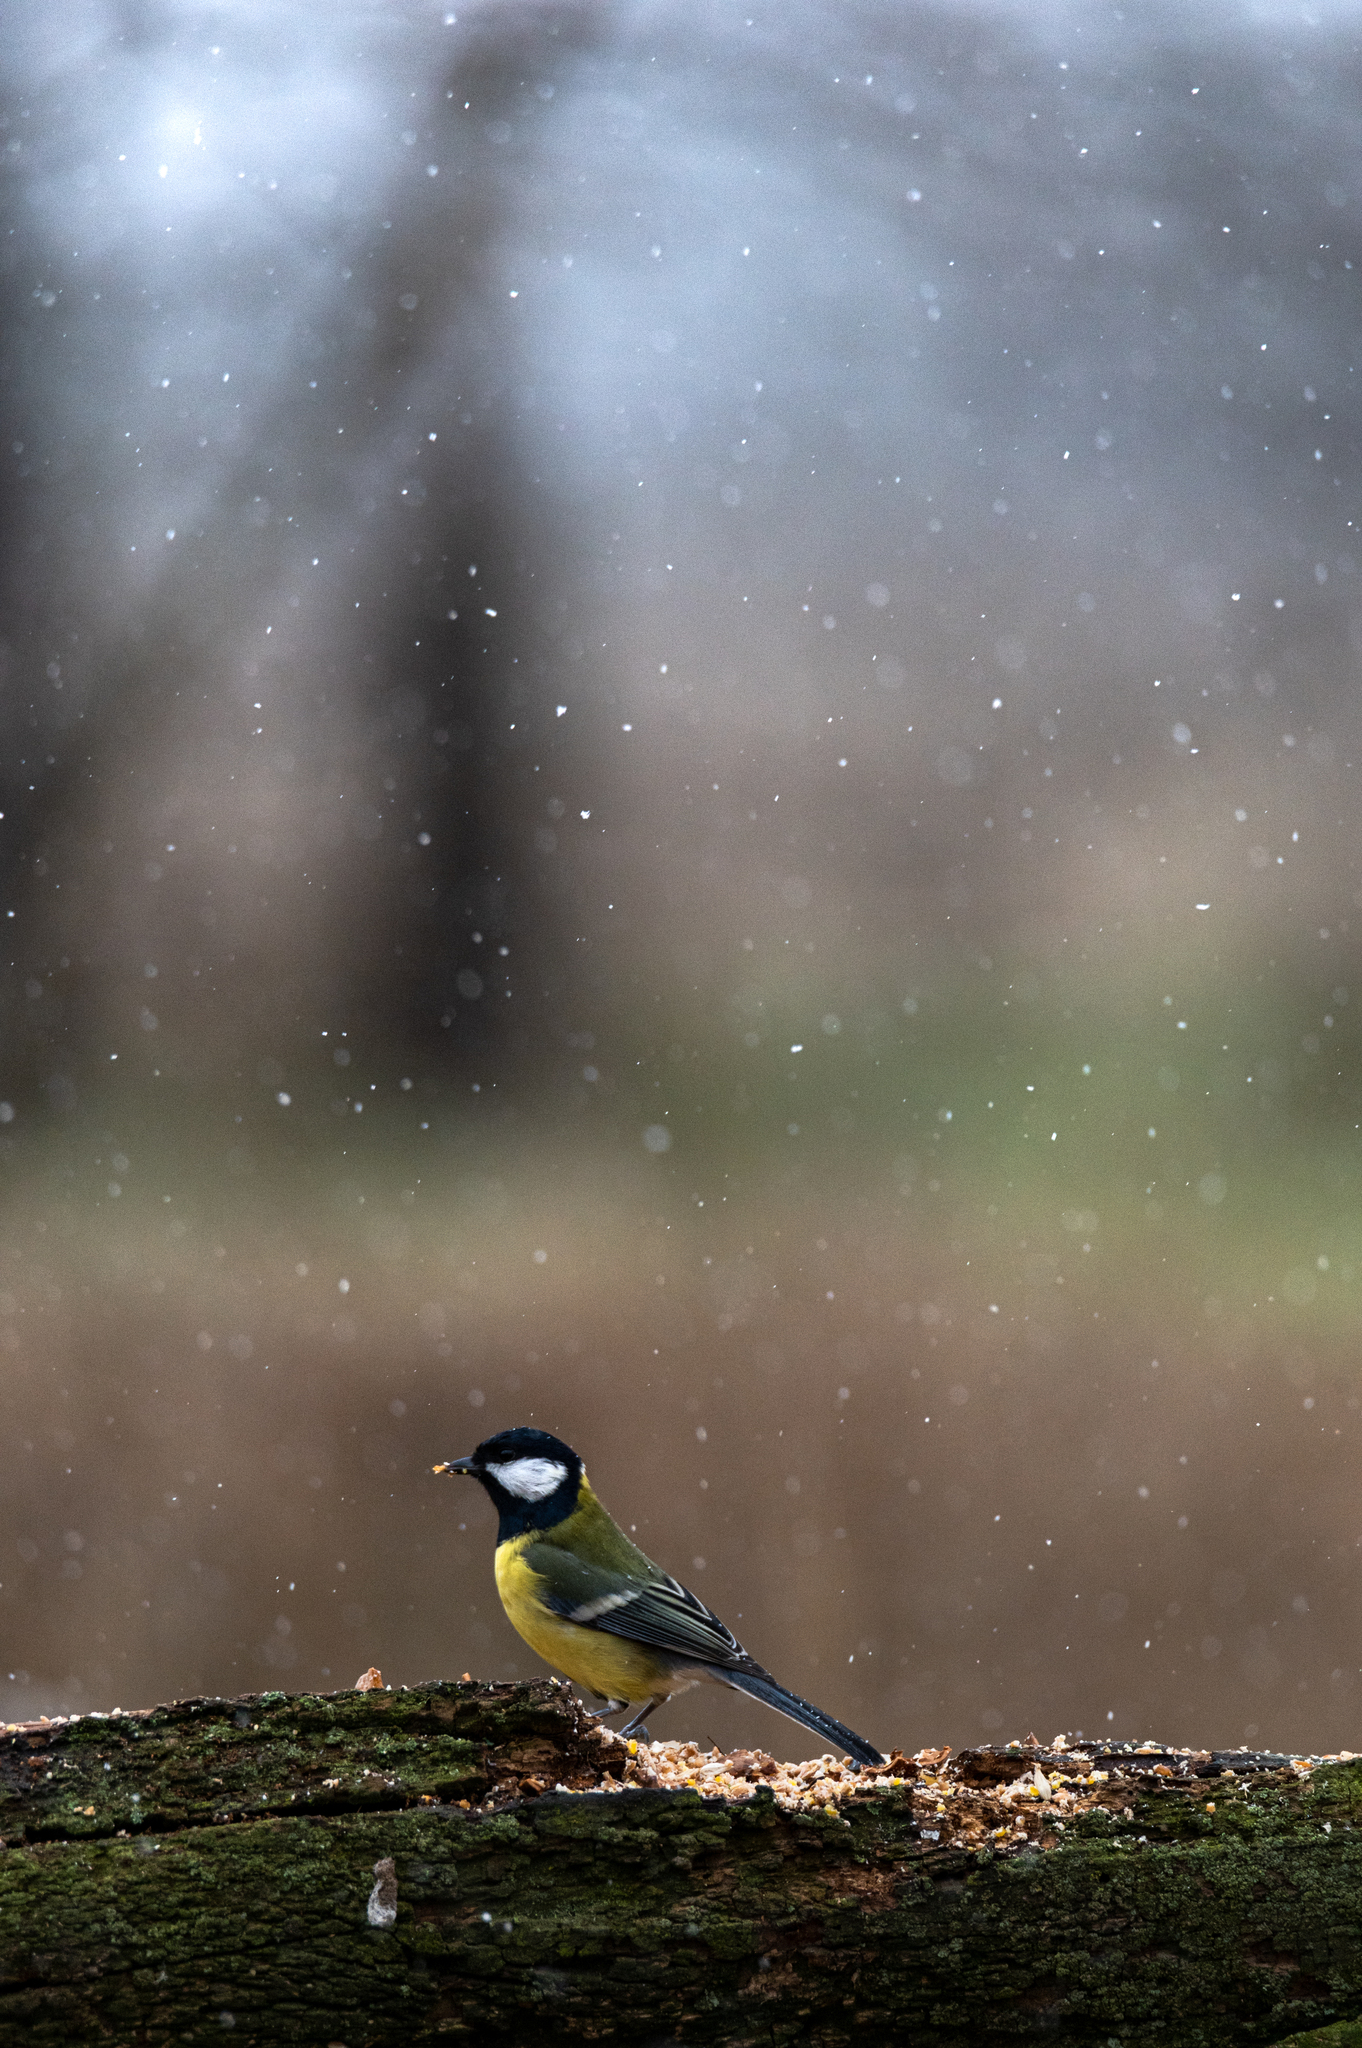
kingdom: Animalia
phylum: Chordata
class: Aves
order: Passeriformes
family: Paridae
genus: Parus
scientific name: Parus major
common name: Great tit
